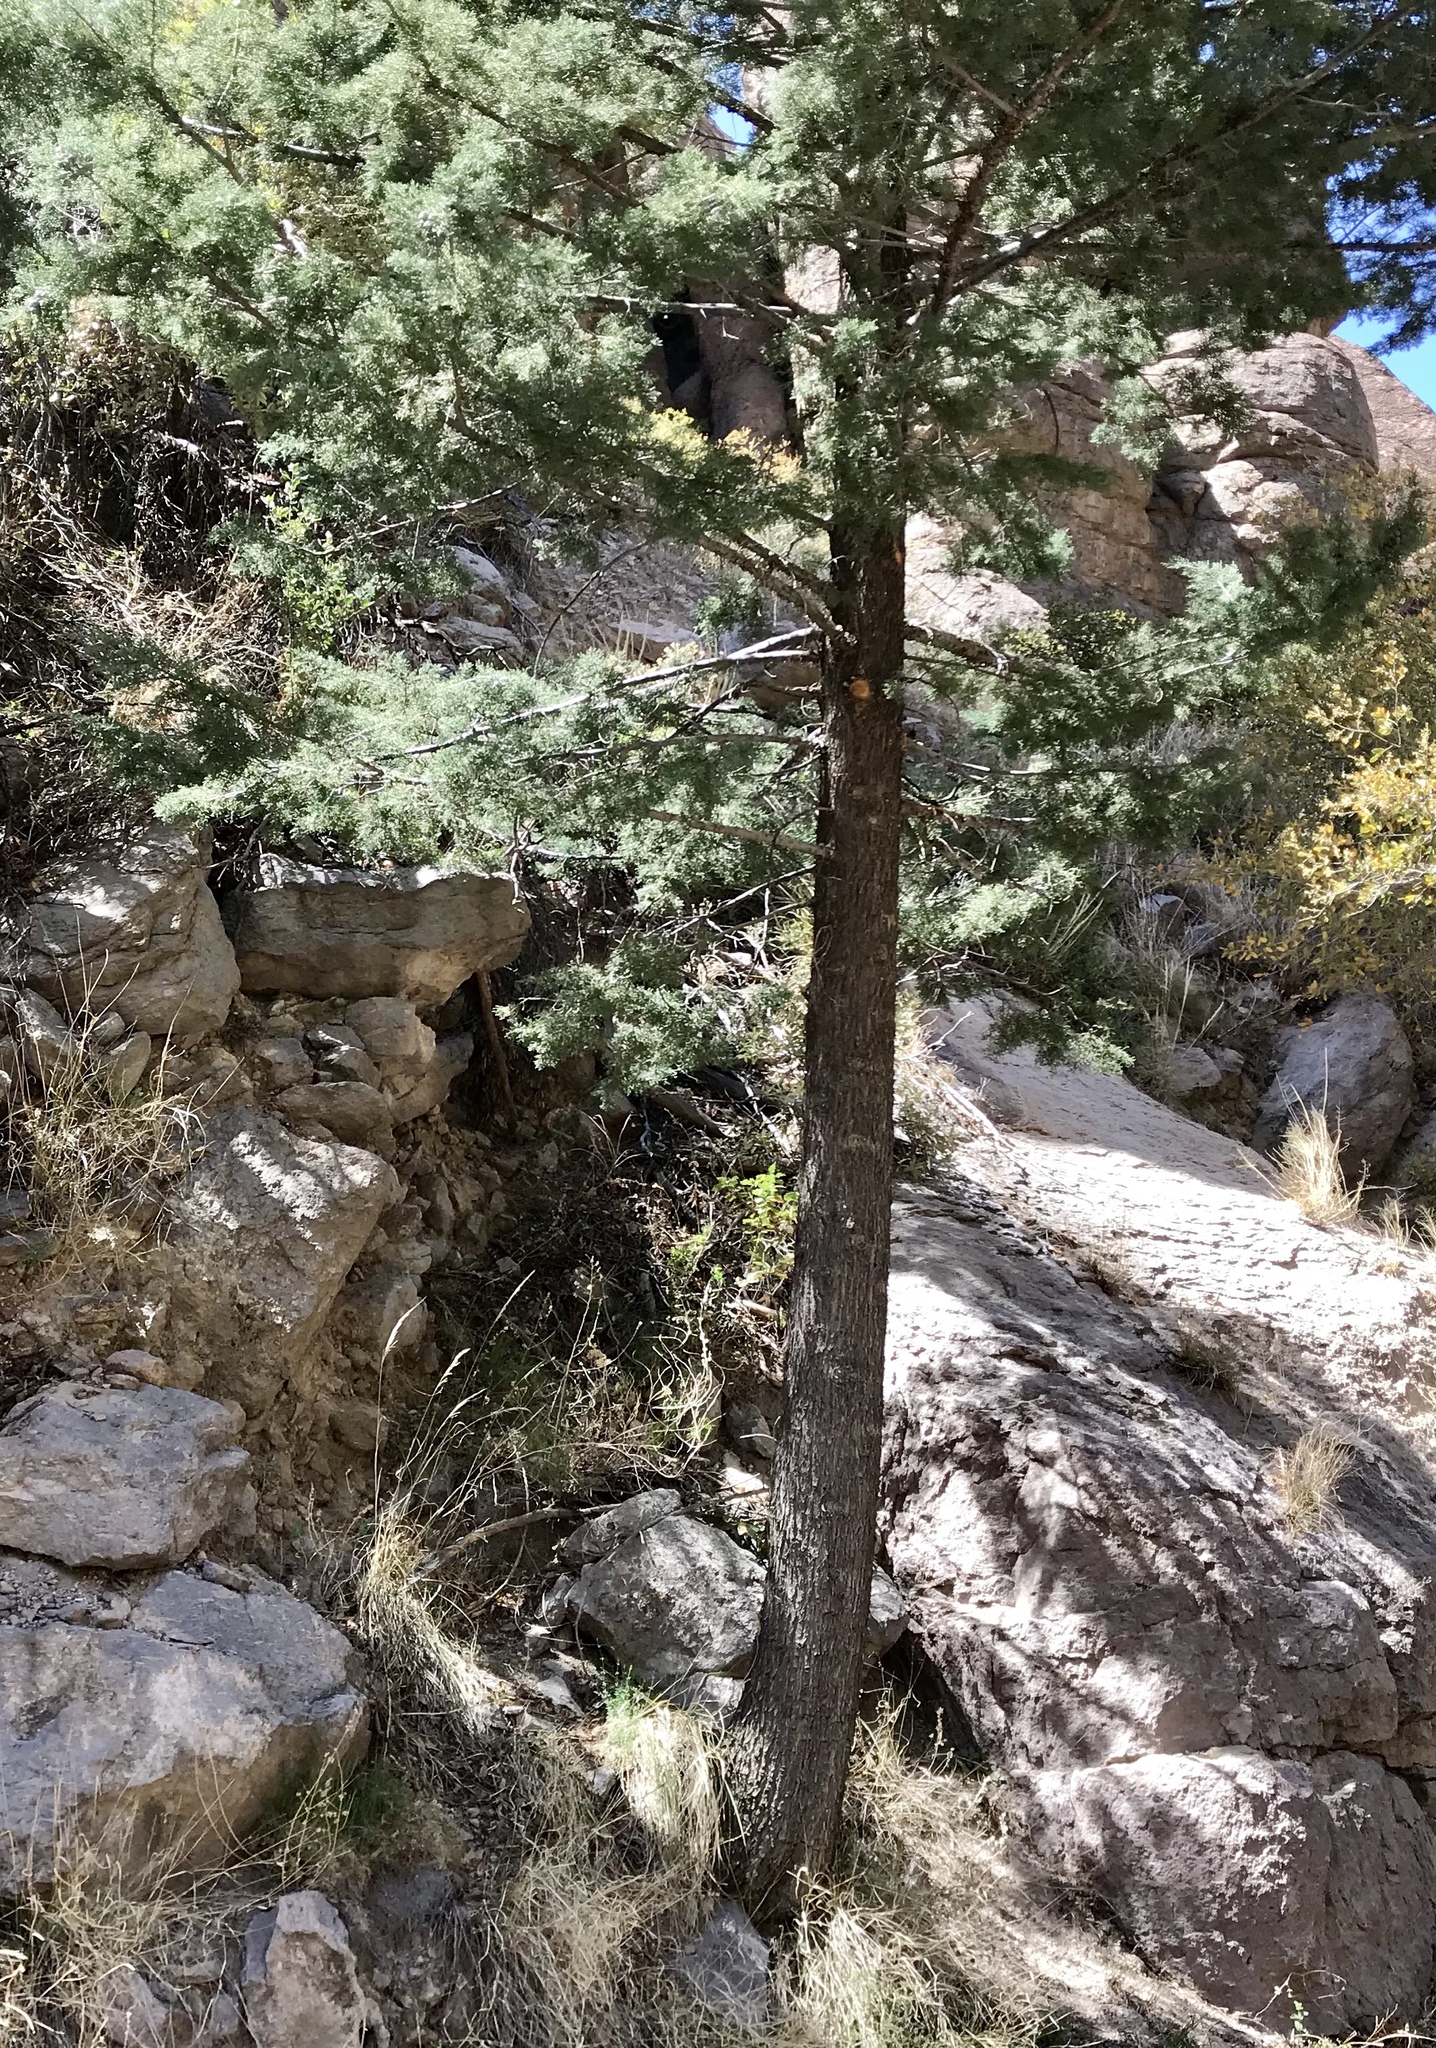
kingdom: Plantae
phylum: Tracheophyta
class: Pinopsida
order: Pinales
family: Cupressaceae
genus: Cupressus
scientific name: Cupressus arizonica
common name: Arizona cypress
